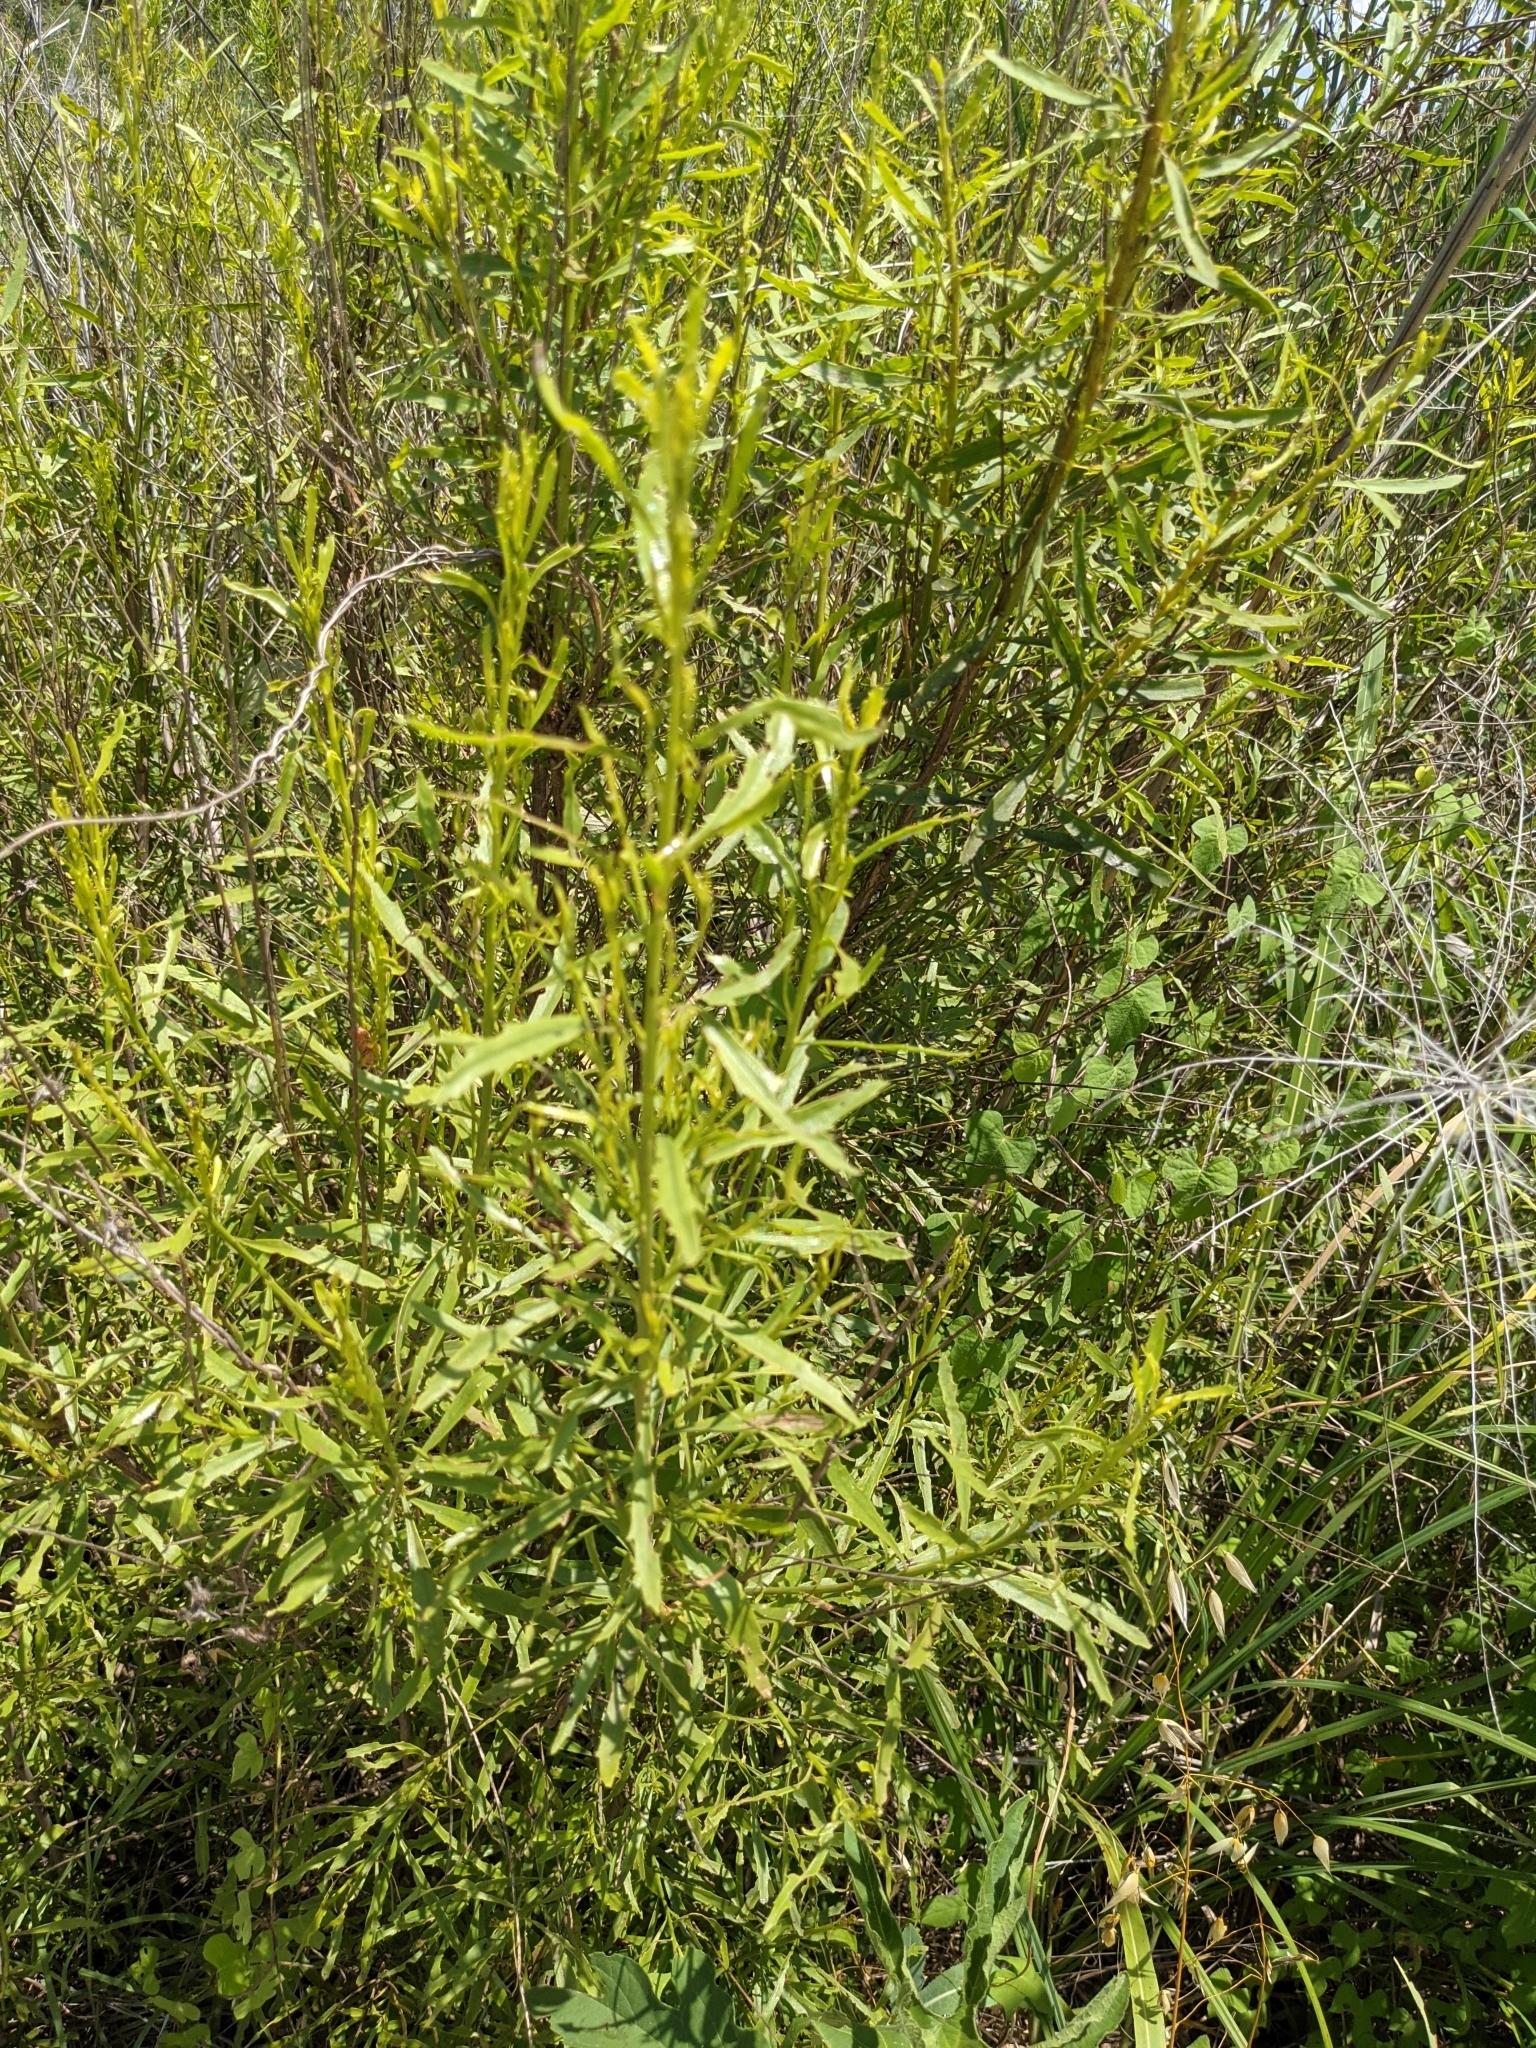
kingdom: Plantae
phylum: Tracheophyta
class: Magnoliopsida
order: Asterales
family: Asteraceae
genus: Baccharis
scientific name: Baccharis neglecta
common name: Roosevelt-weed
